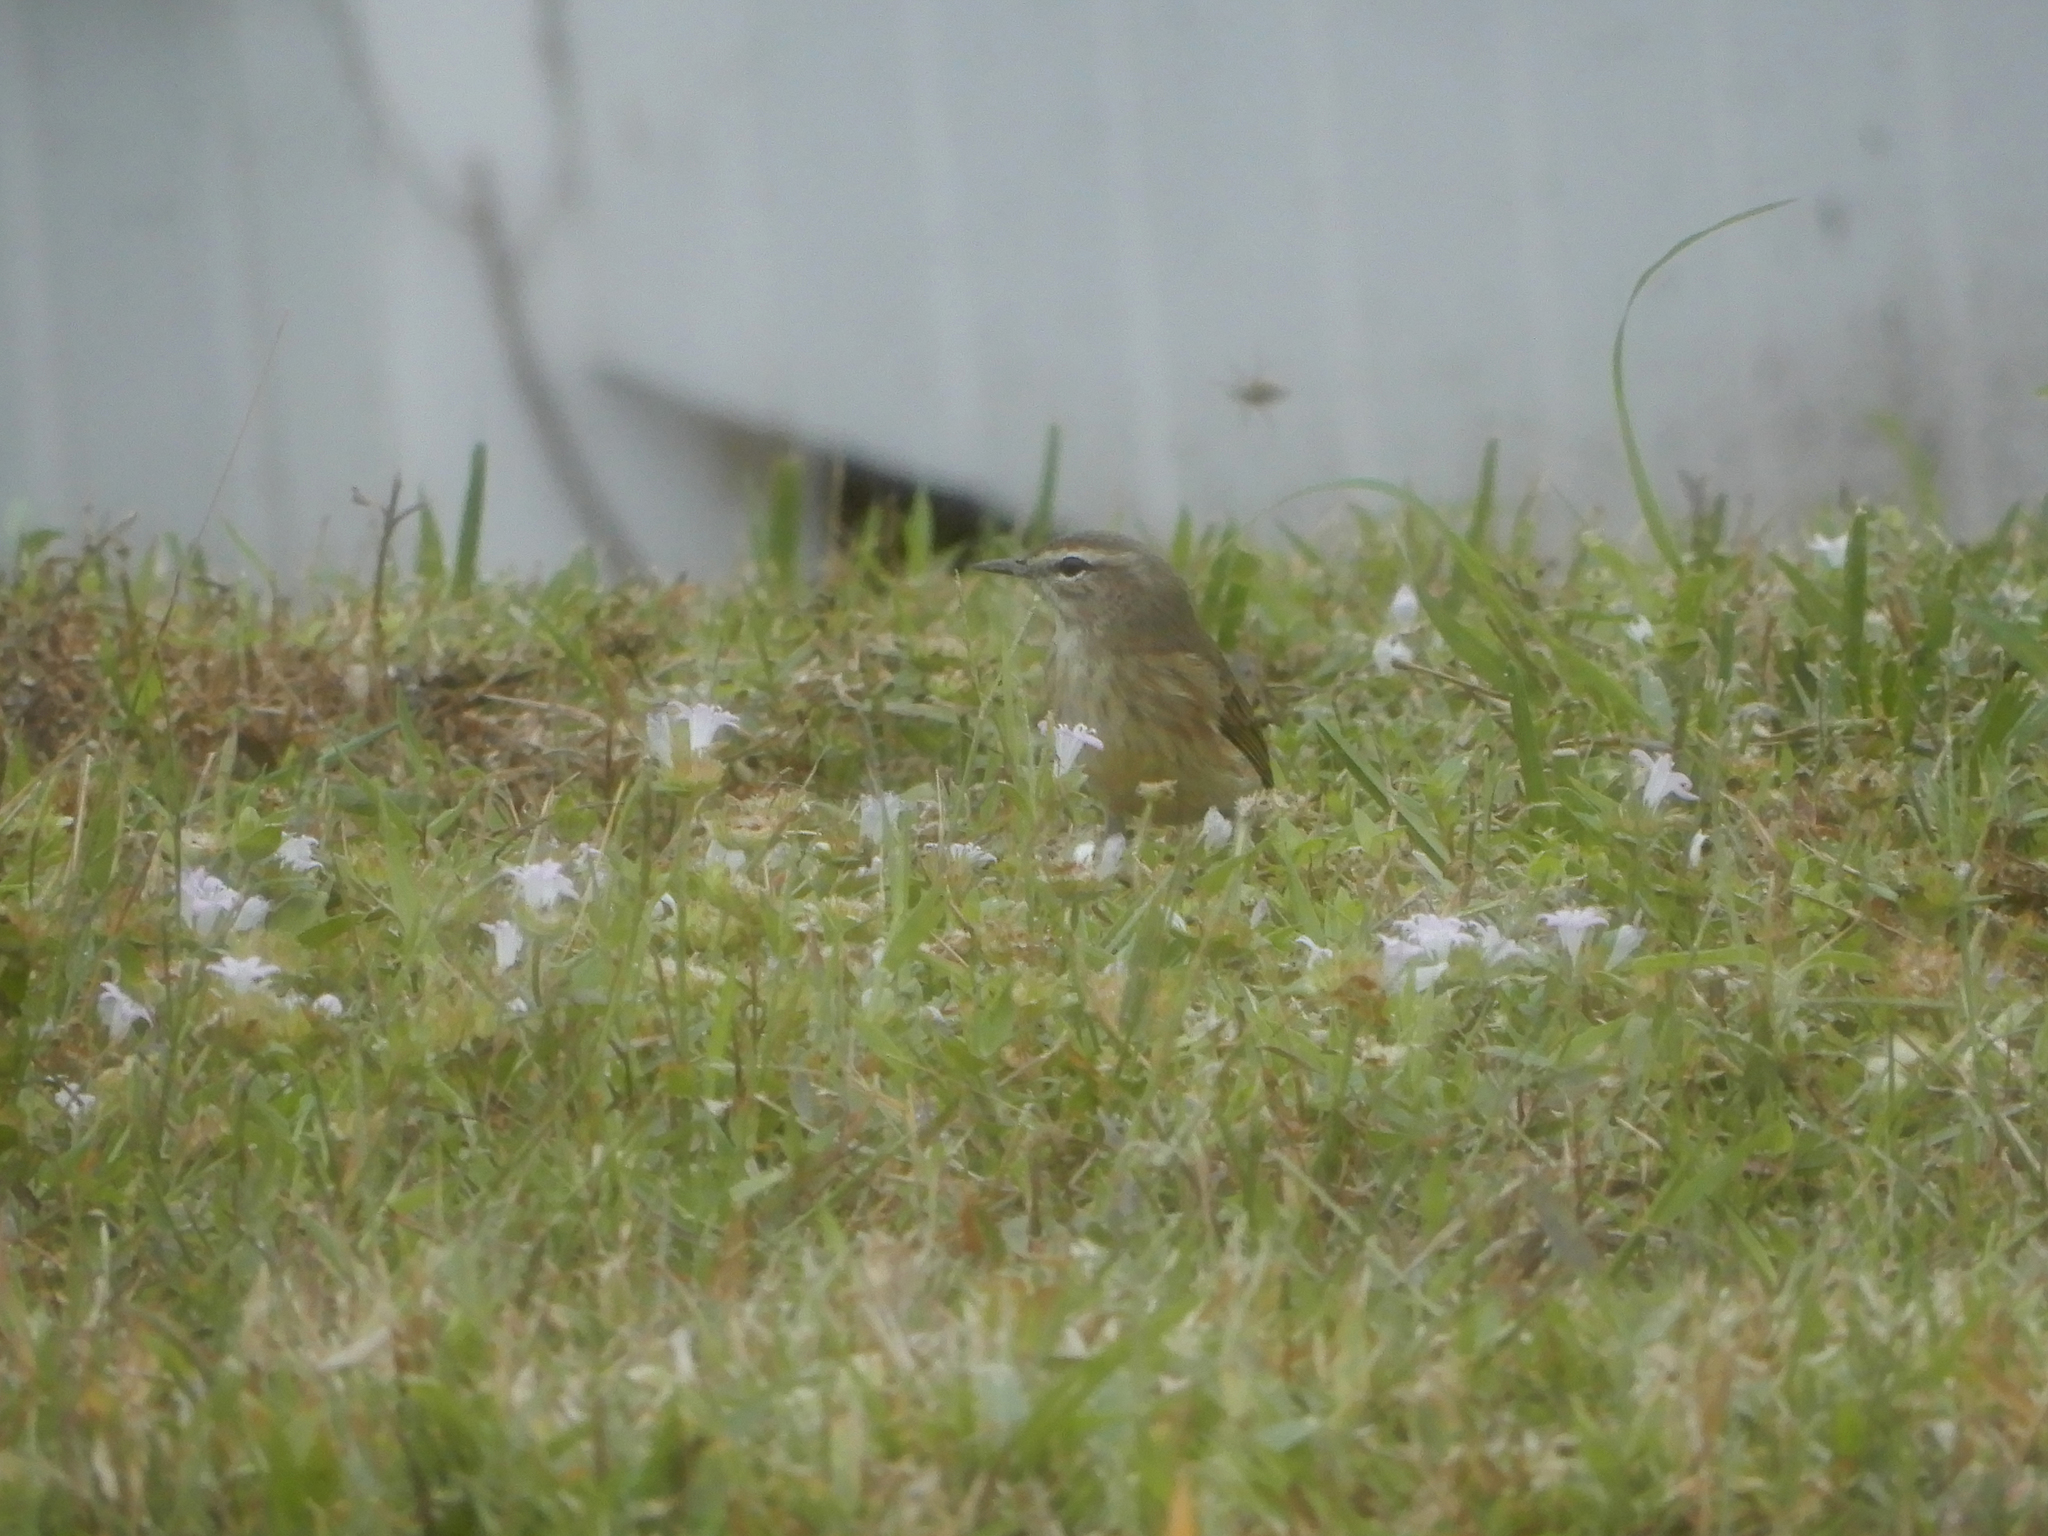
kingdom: Animalia
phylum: Chordata
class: Aves
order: Passeriformes
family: Parulidae
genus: Setophaga
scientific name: Setophaga palmarum
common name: Palm warbler
